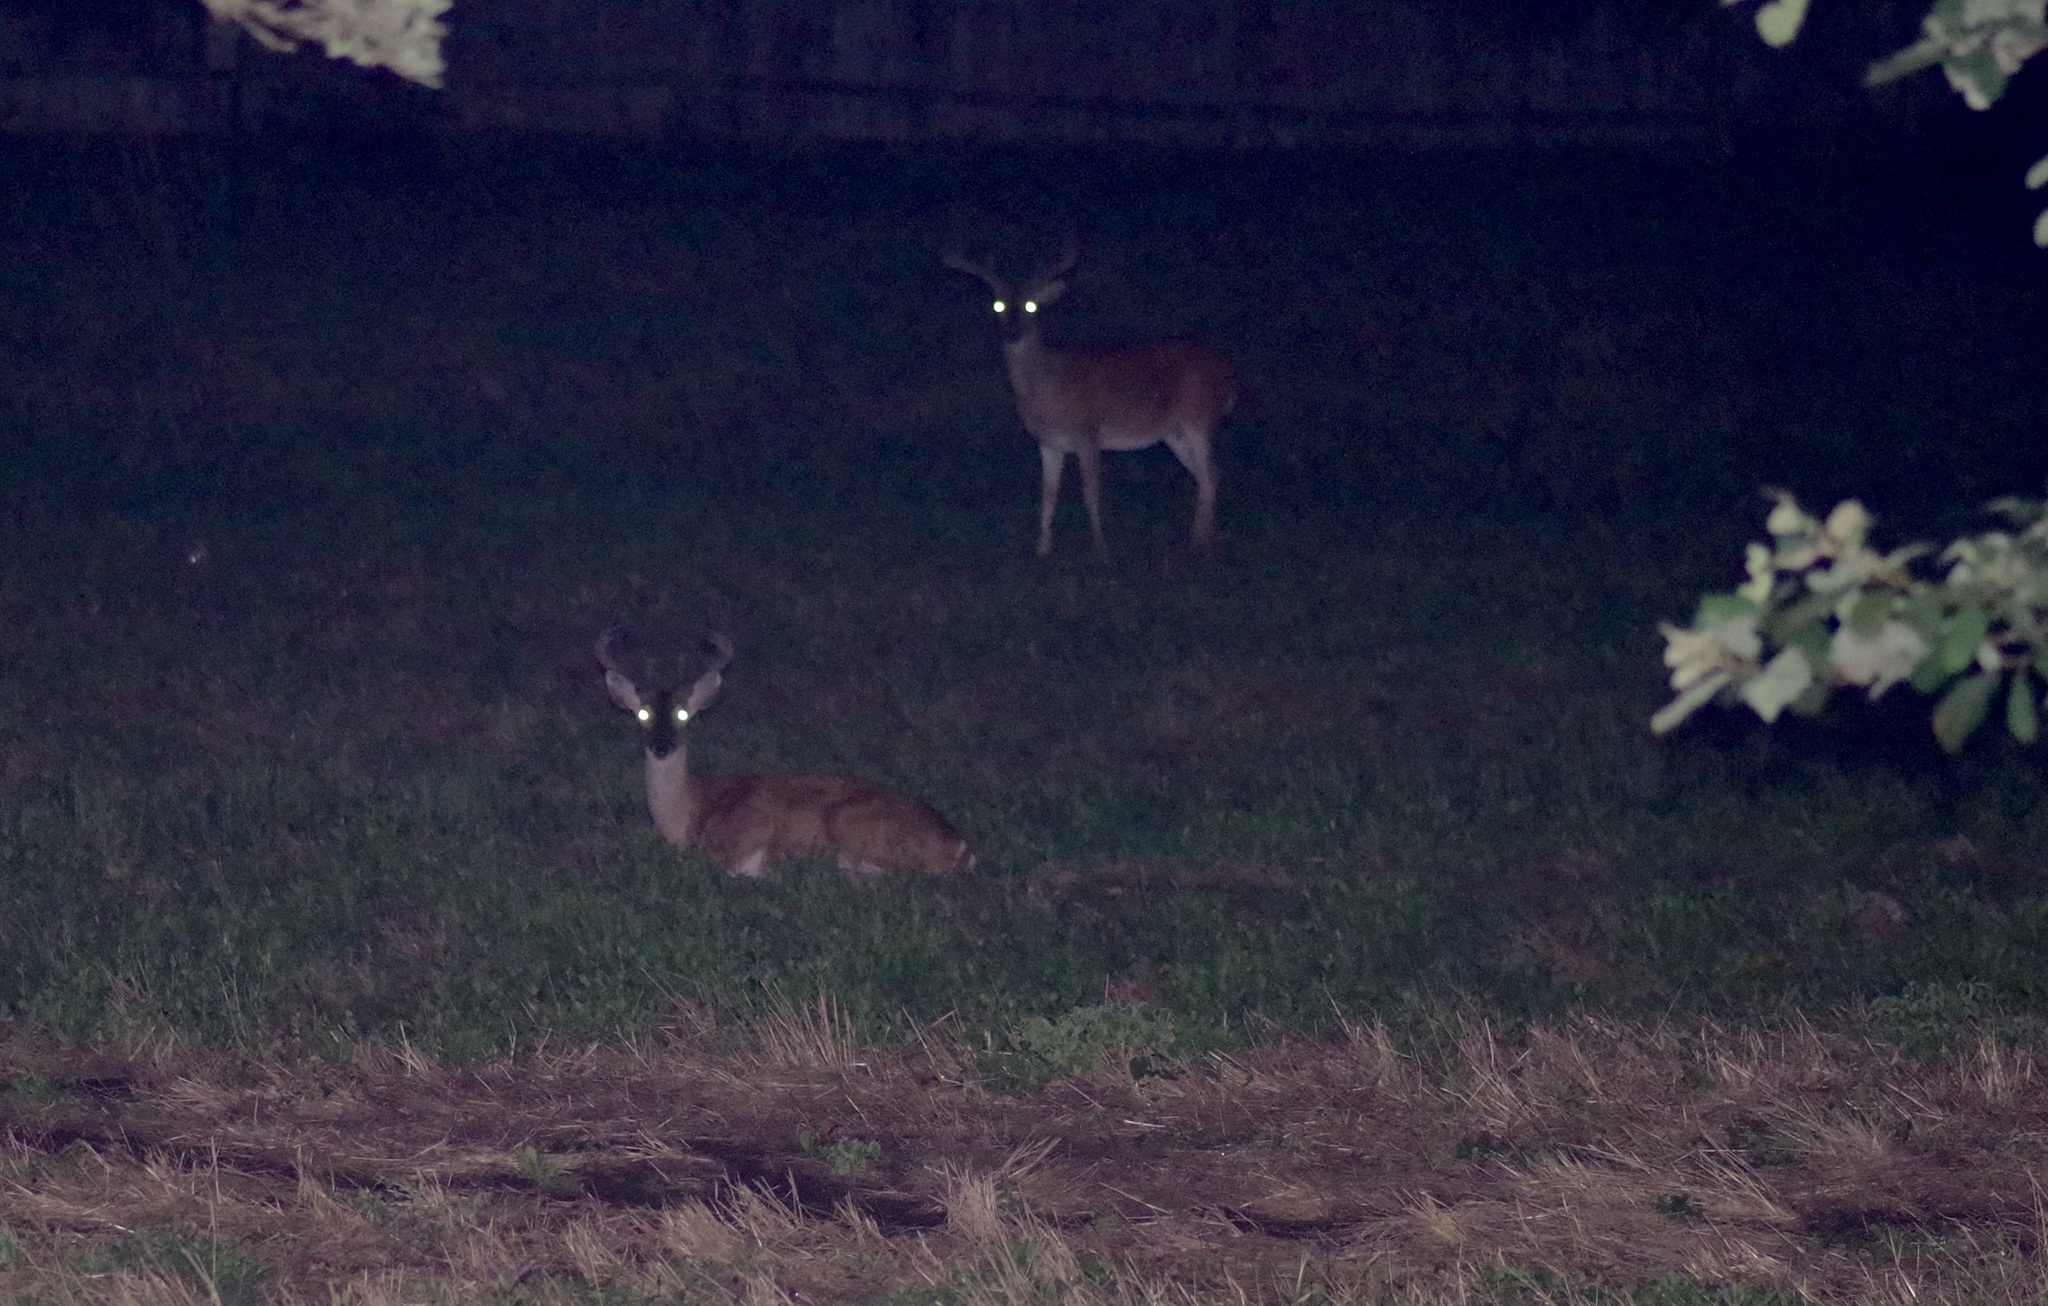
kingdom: Animalia
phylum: Chordata
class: Mammalia
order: Artiodactyla
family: Cervidae
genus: Odocoileus
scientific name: Odocoileus virginianus
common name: White-tailed deer
